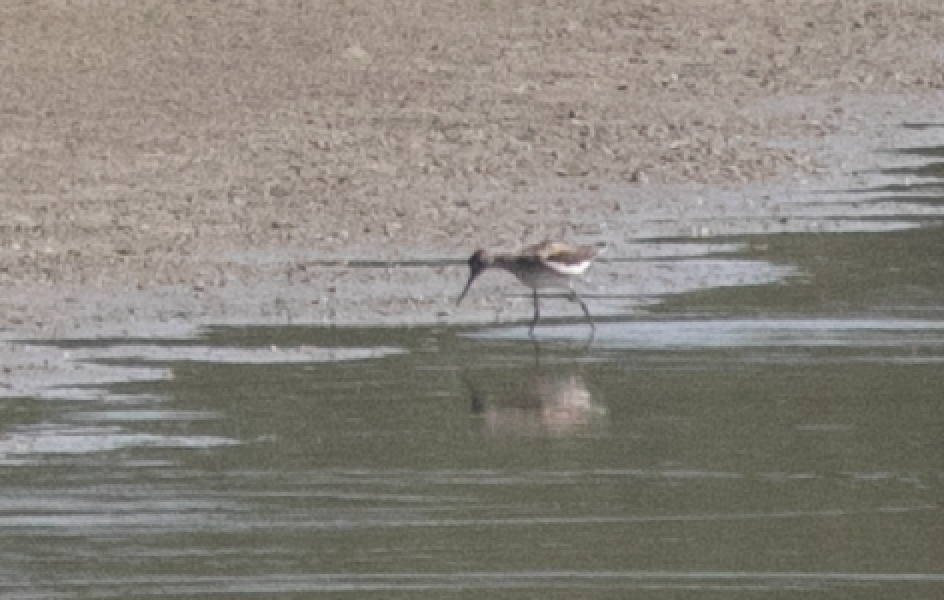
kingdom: Animalia
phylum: Chordata
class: Aves
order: Charadriiformes
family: Scolopacidae
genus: Tringa
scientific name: Tringa nebularia
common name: Common greenshank
